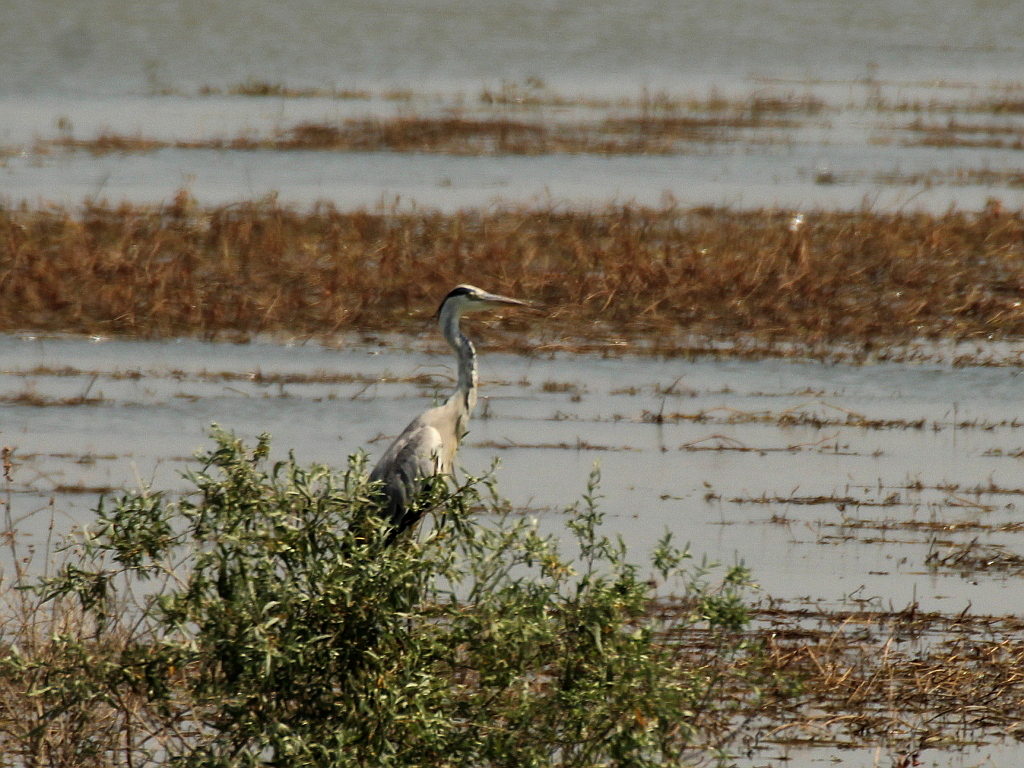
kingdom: Animalia
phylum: Chordata
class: Aves
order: Pelecaniformes
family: Ardeidae
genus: Ardea
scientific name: Ardea cinerea
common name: Grey heron
